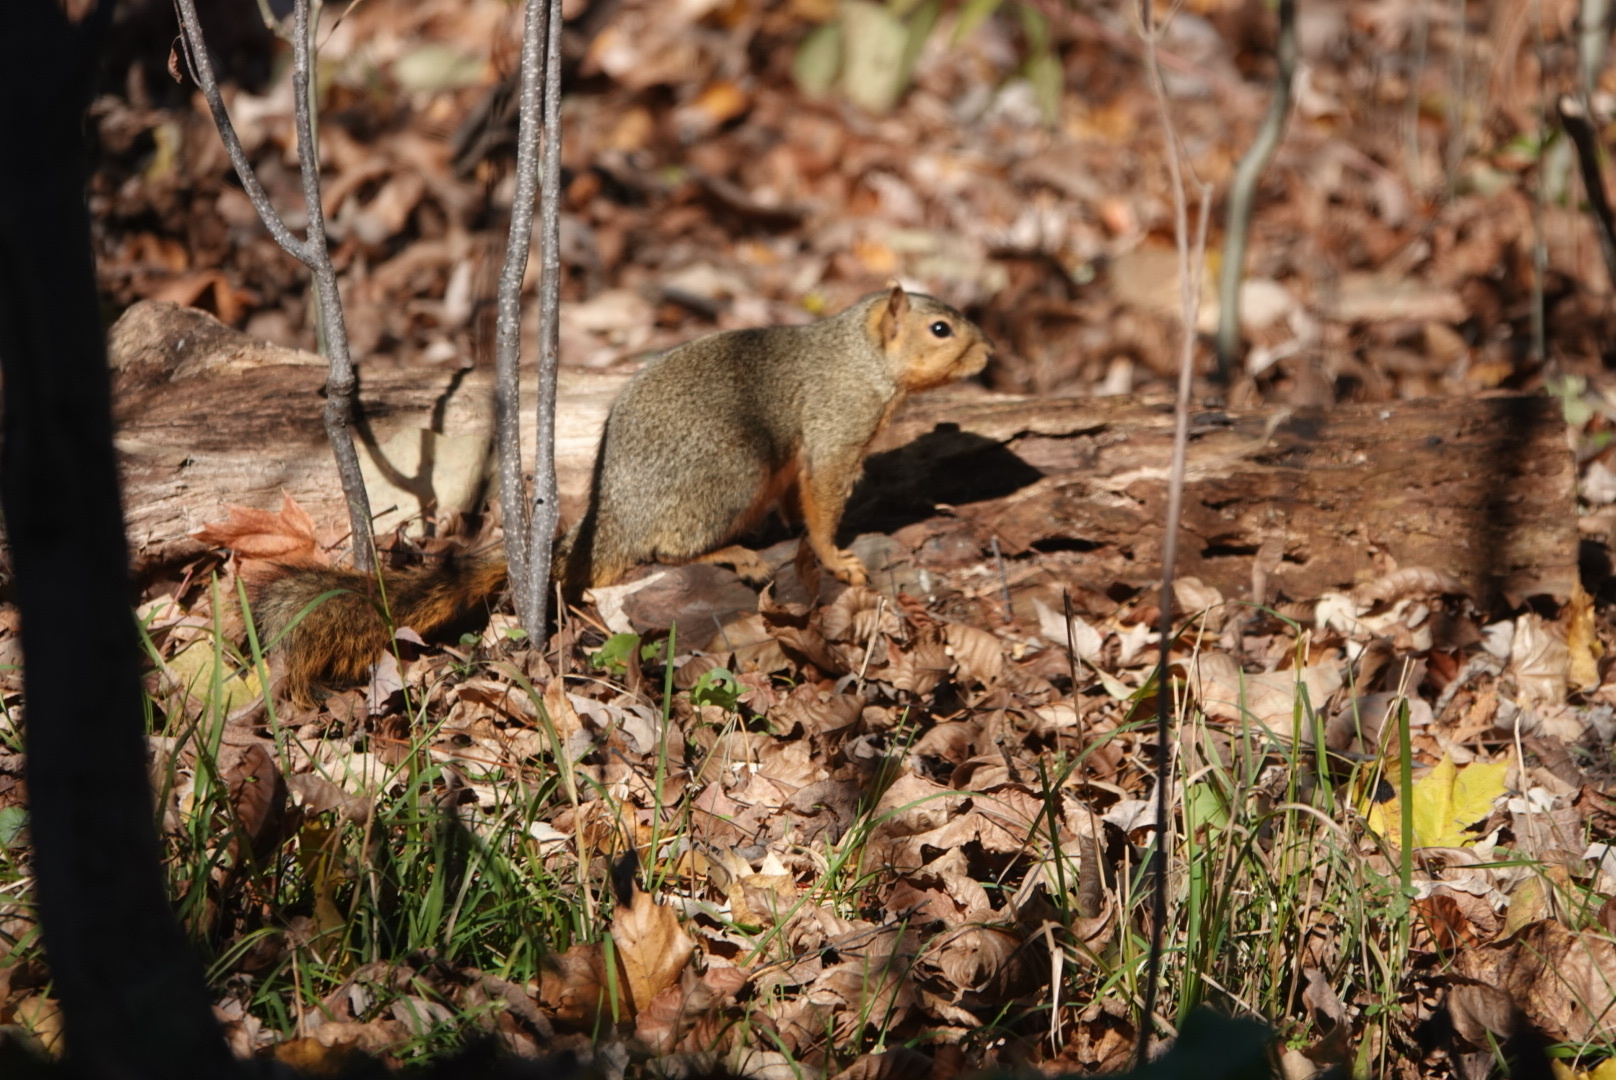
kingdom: Animalia
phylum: Chordata
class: Mammalia
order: Rodentia
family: Sciuridae
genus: Sciurus
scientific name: Sciurus niger
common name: Fox squirrel
